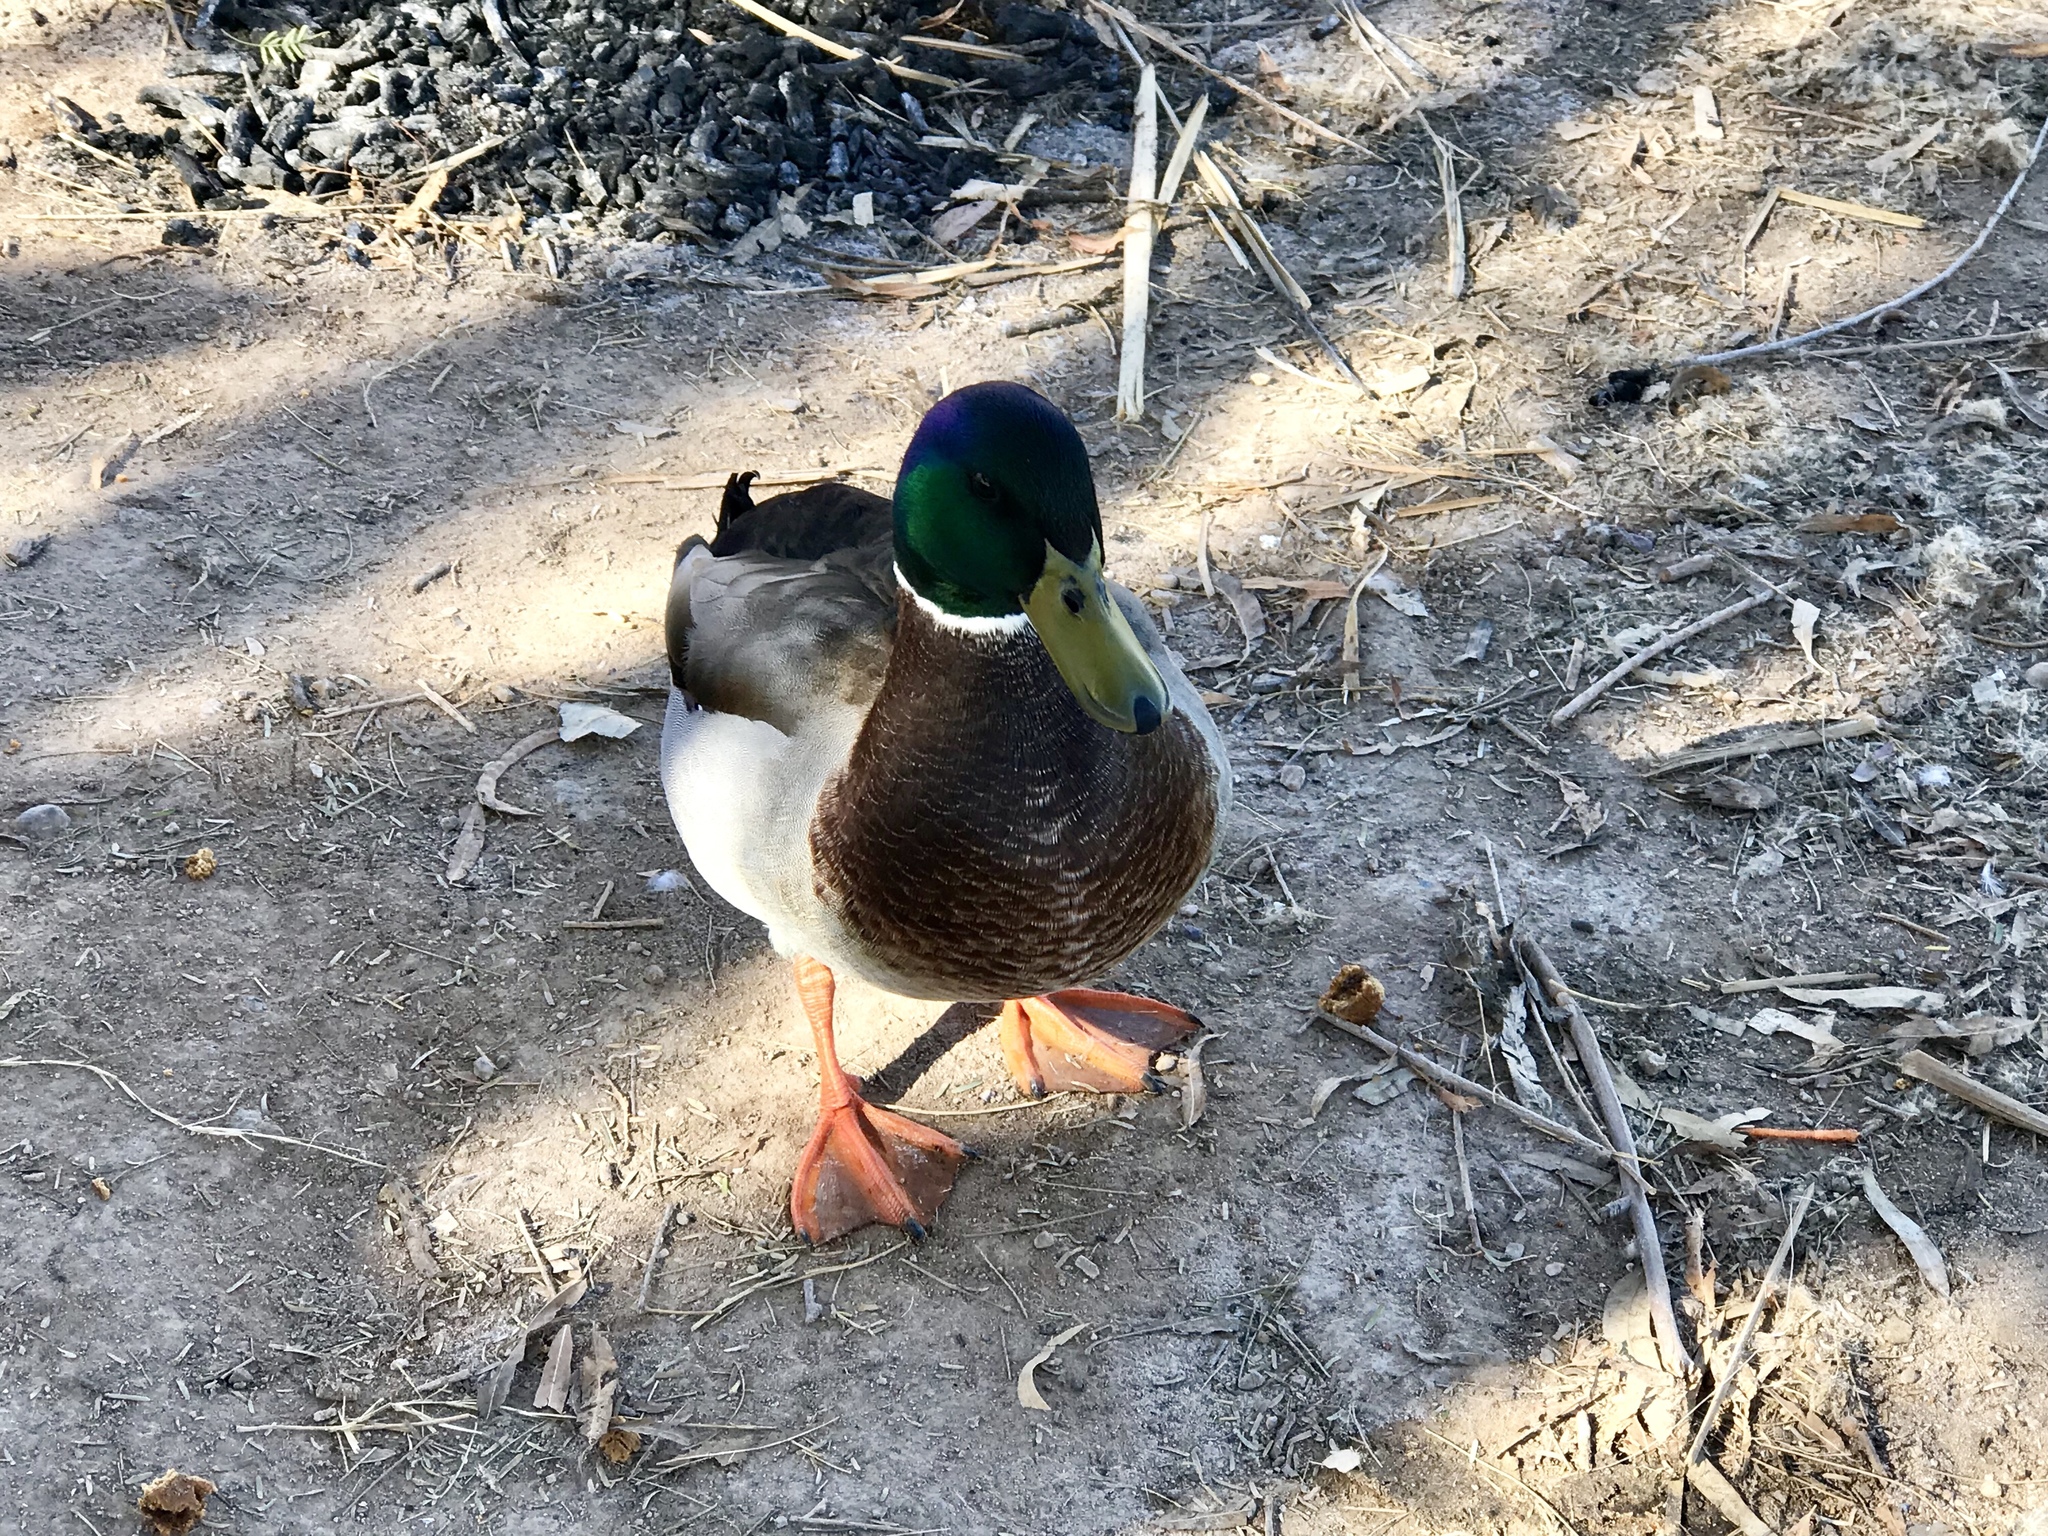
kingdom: Animalia
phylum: Chordata
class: Aves
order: Anseriformes
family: Anatidae
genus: Anas
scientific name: Anas platyrhynchos
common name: Mallard
